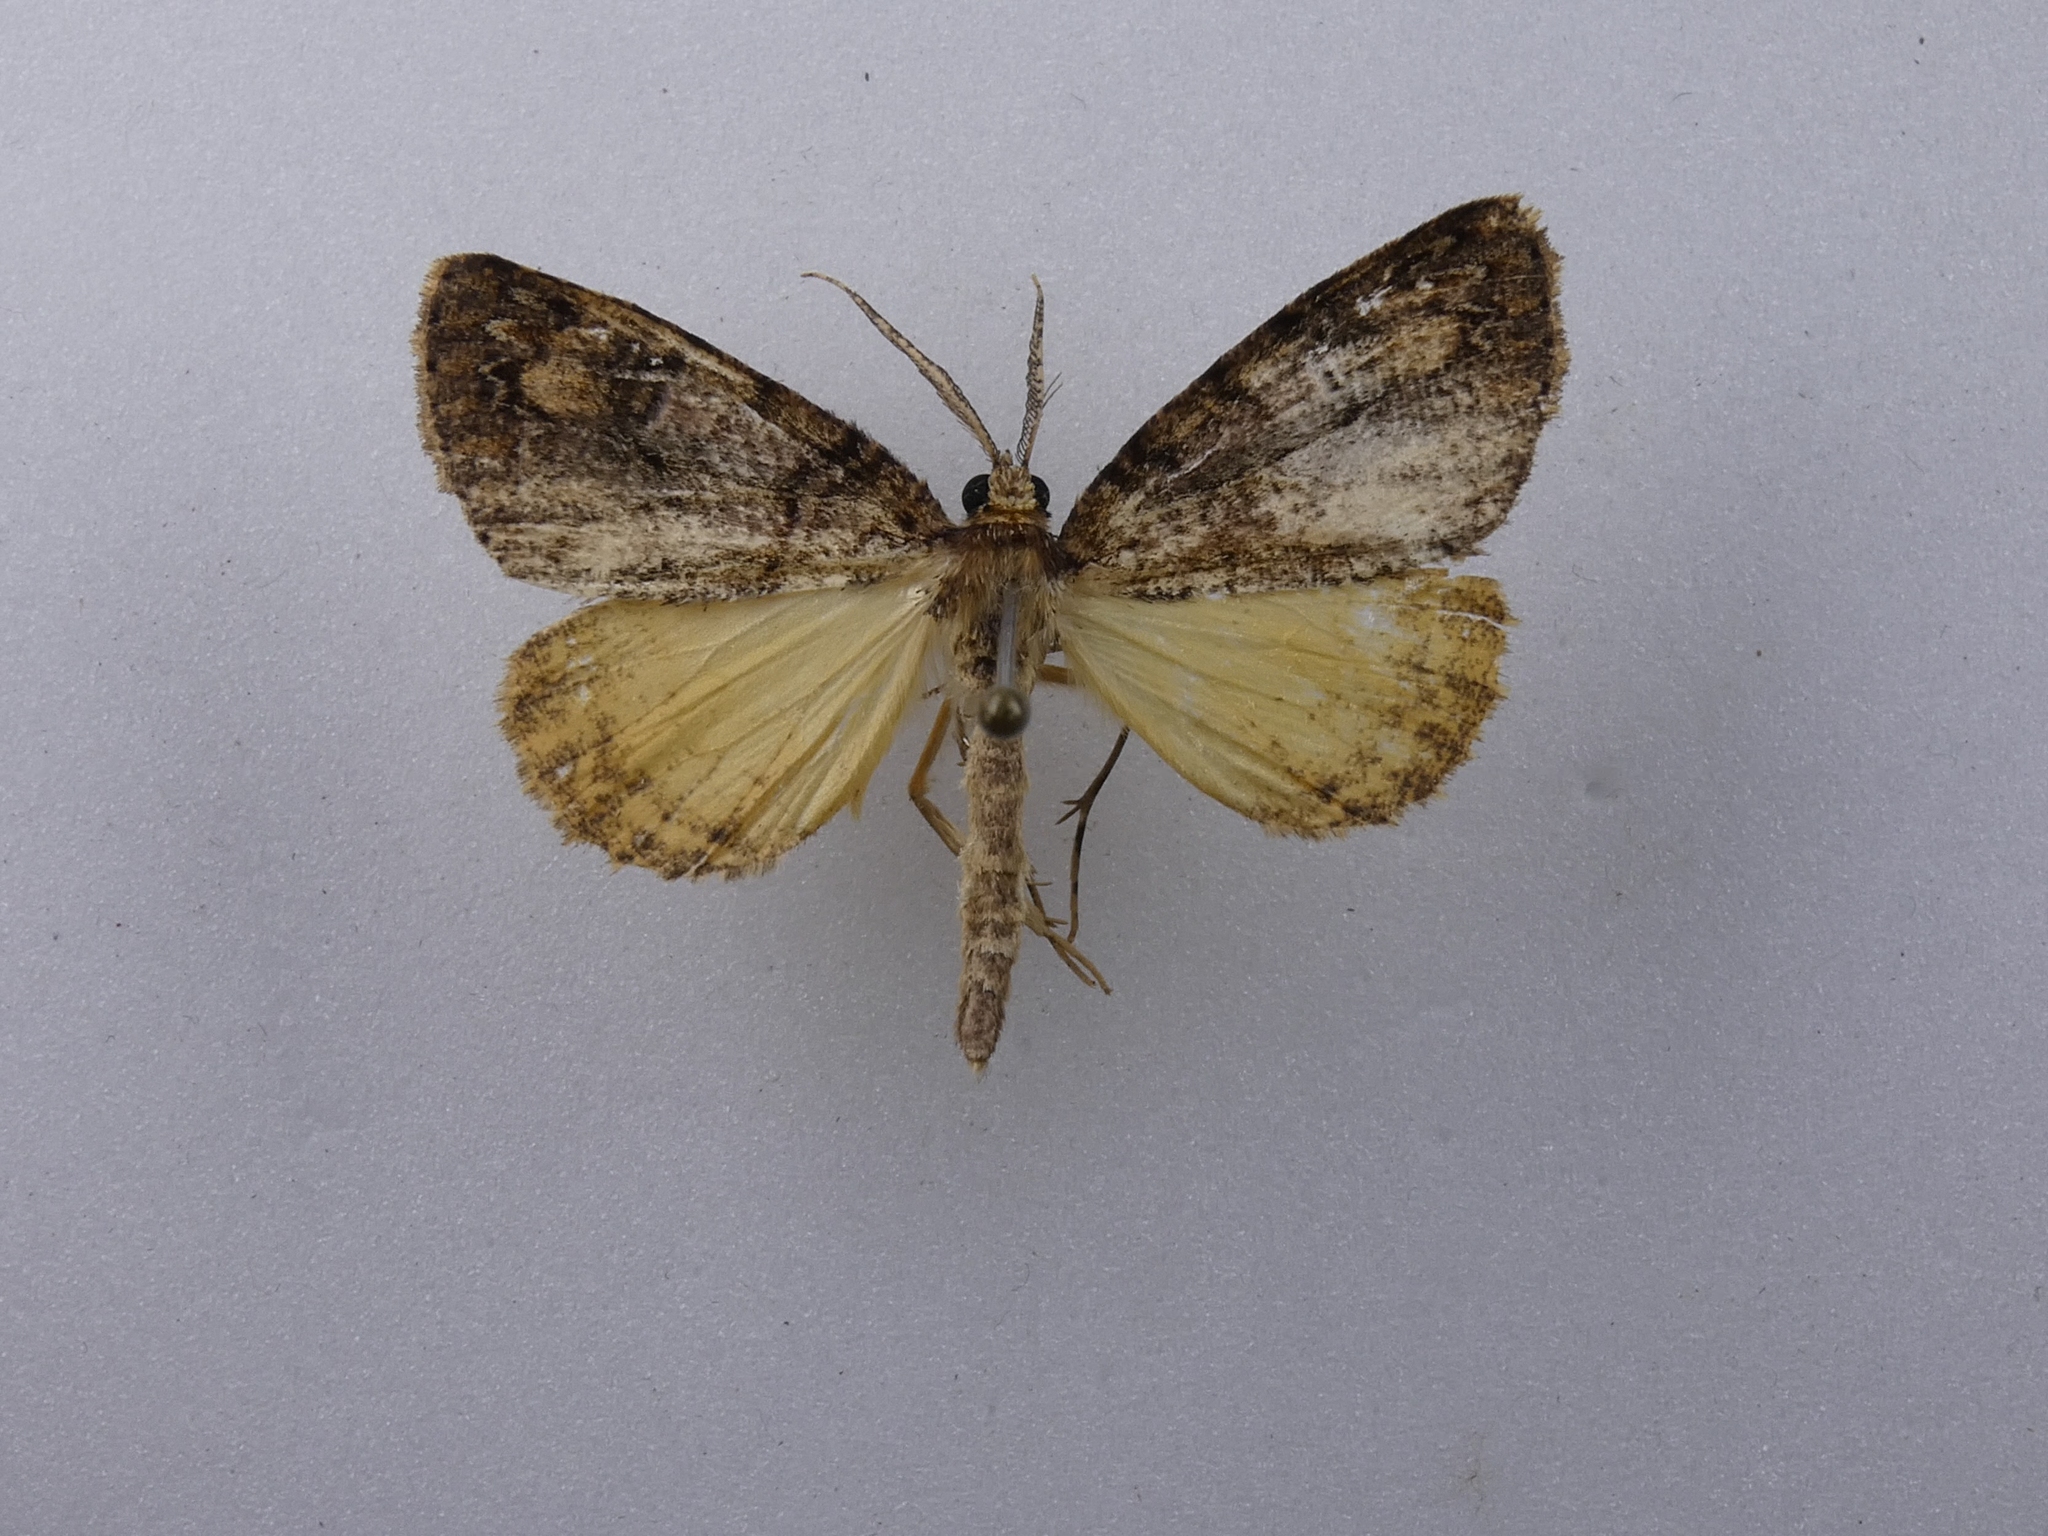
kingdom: Animalia
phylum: Arthropoda
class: Insecta
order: Lepidoptera
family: Geometridae
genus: Pseudocoremia
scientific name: Pseudocoremia productata
